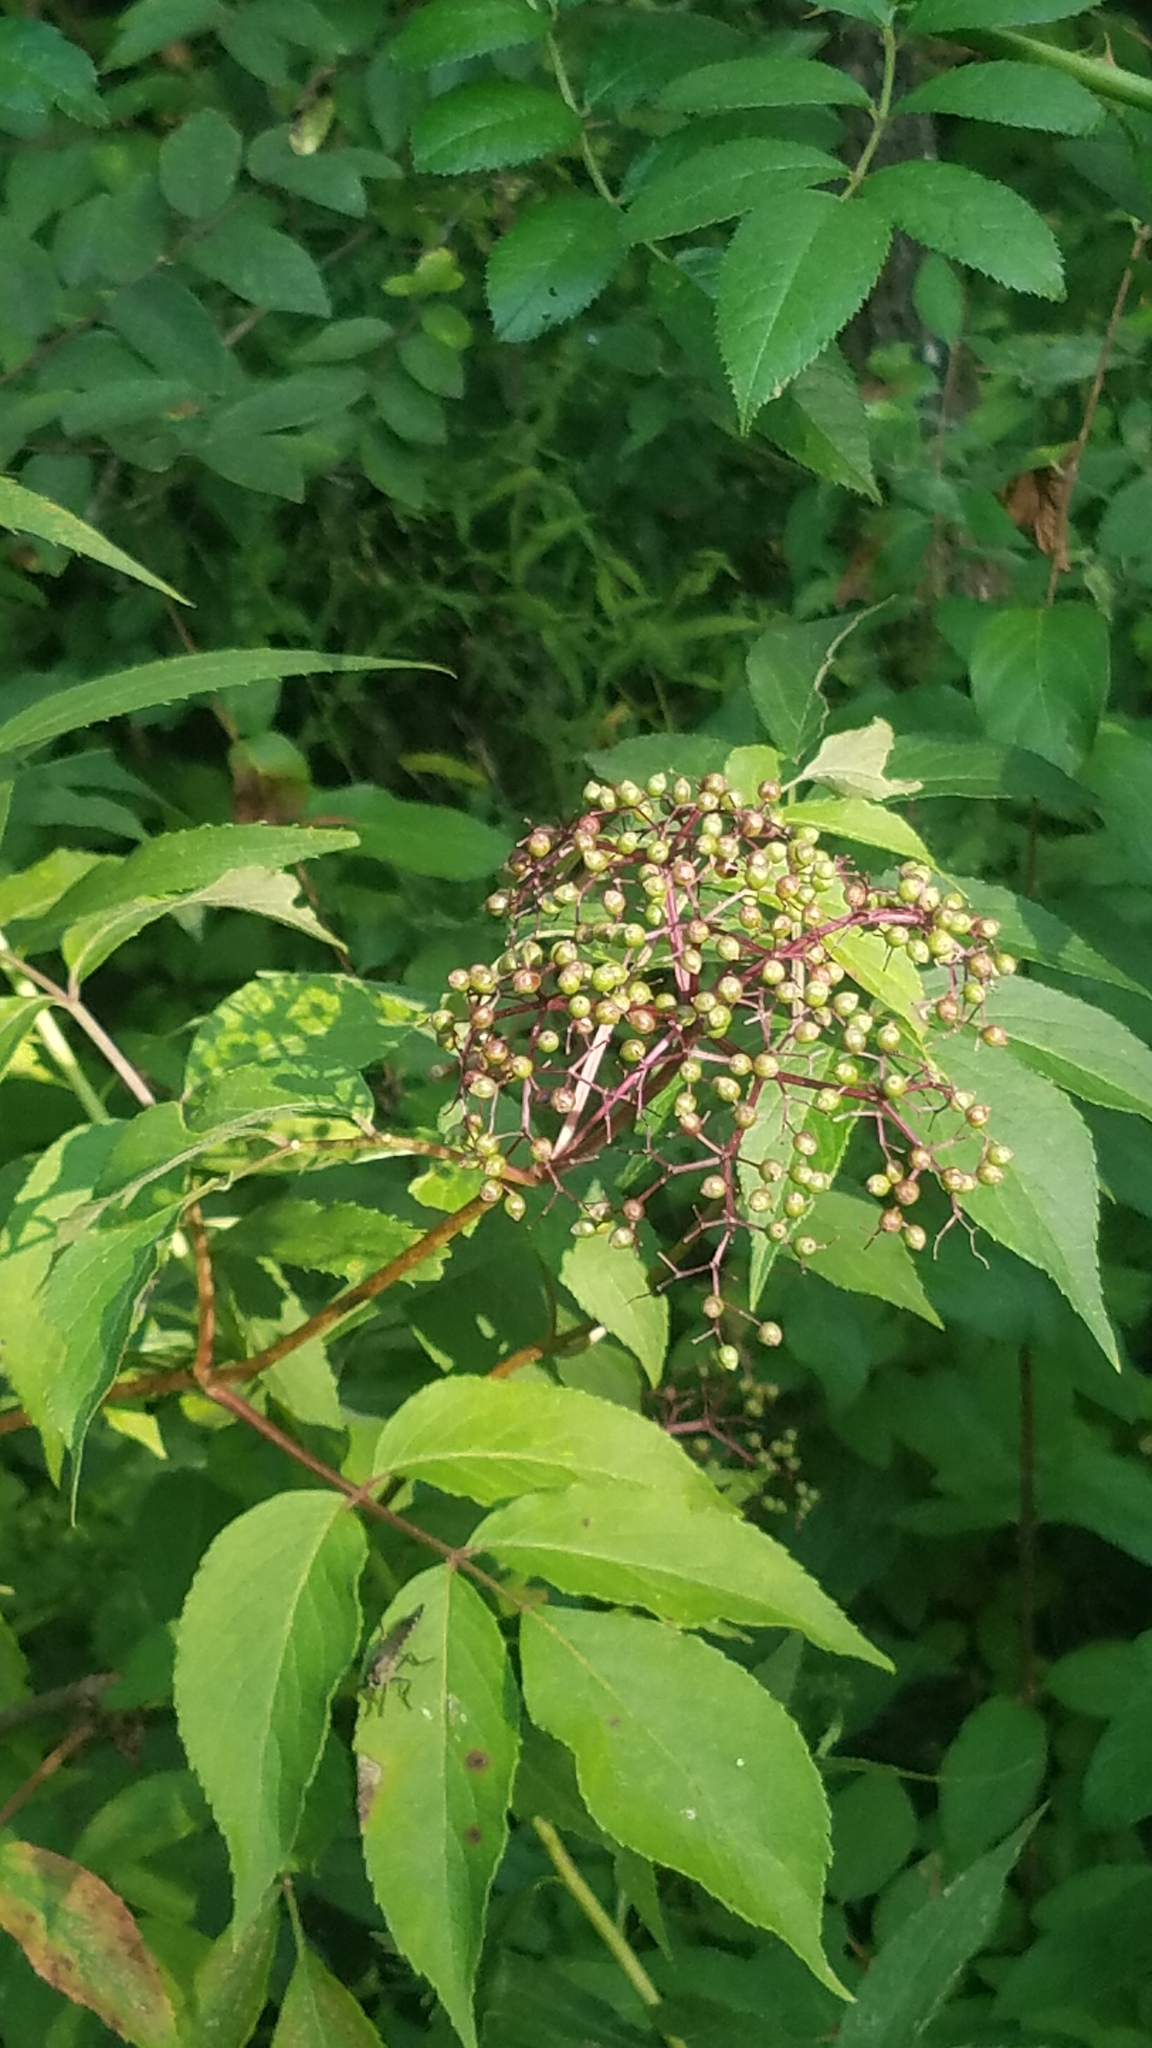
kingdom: Plantae
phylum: Tracheophyta
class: Magnoliopsida
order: Dipsacales
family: Viburnaceae
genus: Sambucus
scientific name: Sambucus canadensis
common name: American elder
